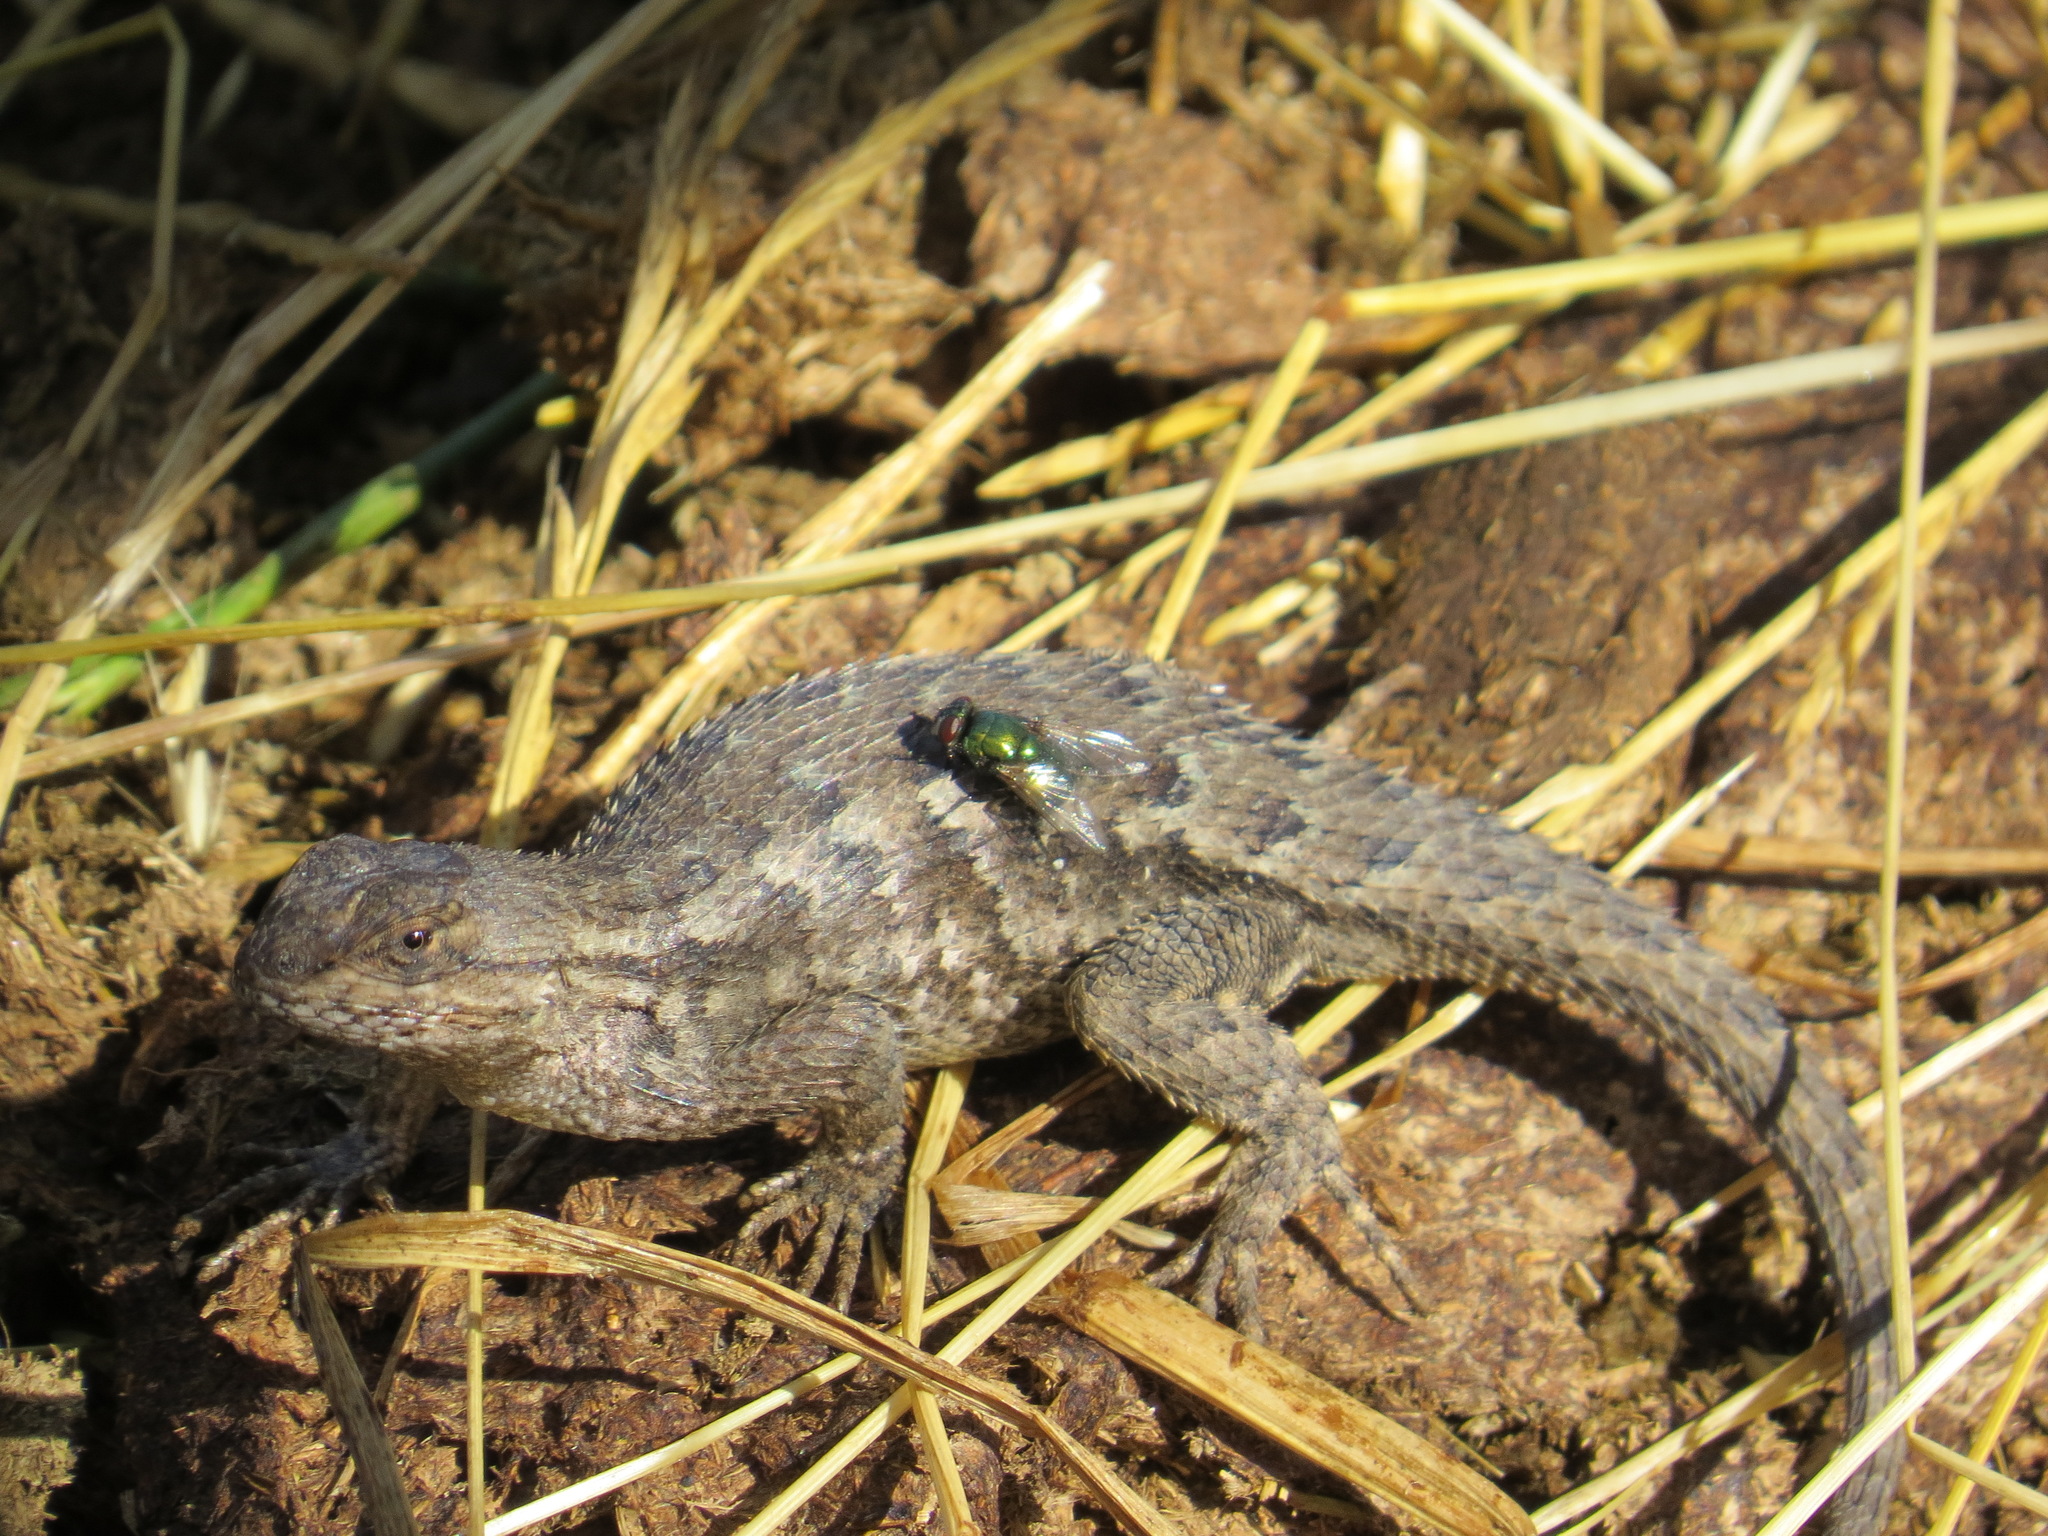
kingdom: Animalia
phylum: Chordata
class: Squamata
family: Phrynosomatidae
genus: Sceloporus
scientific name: Sceloporus occidentalis
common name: Western fence lizard
